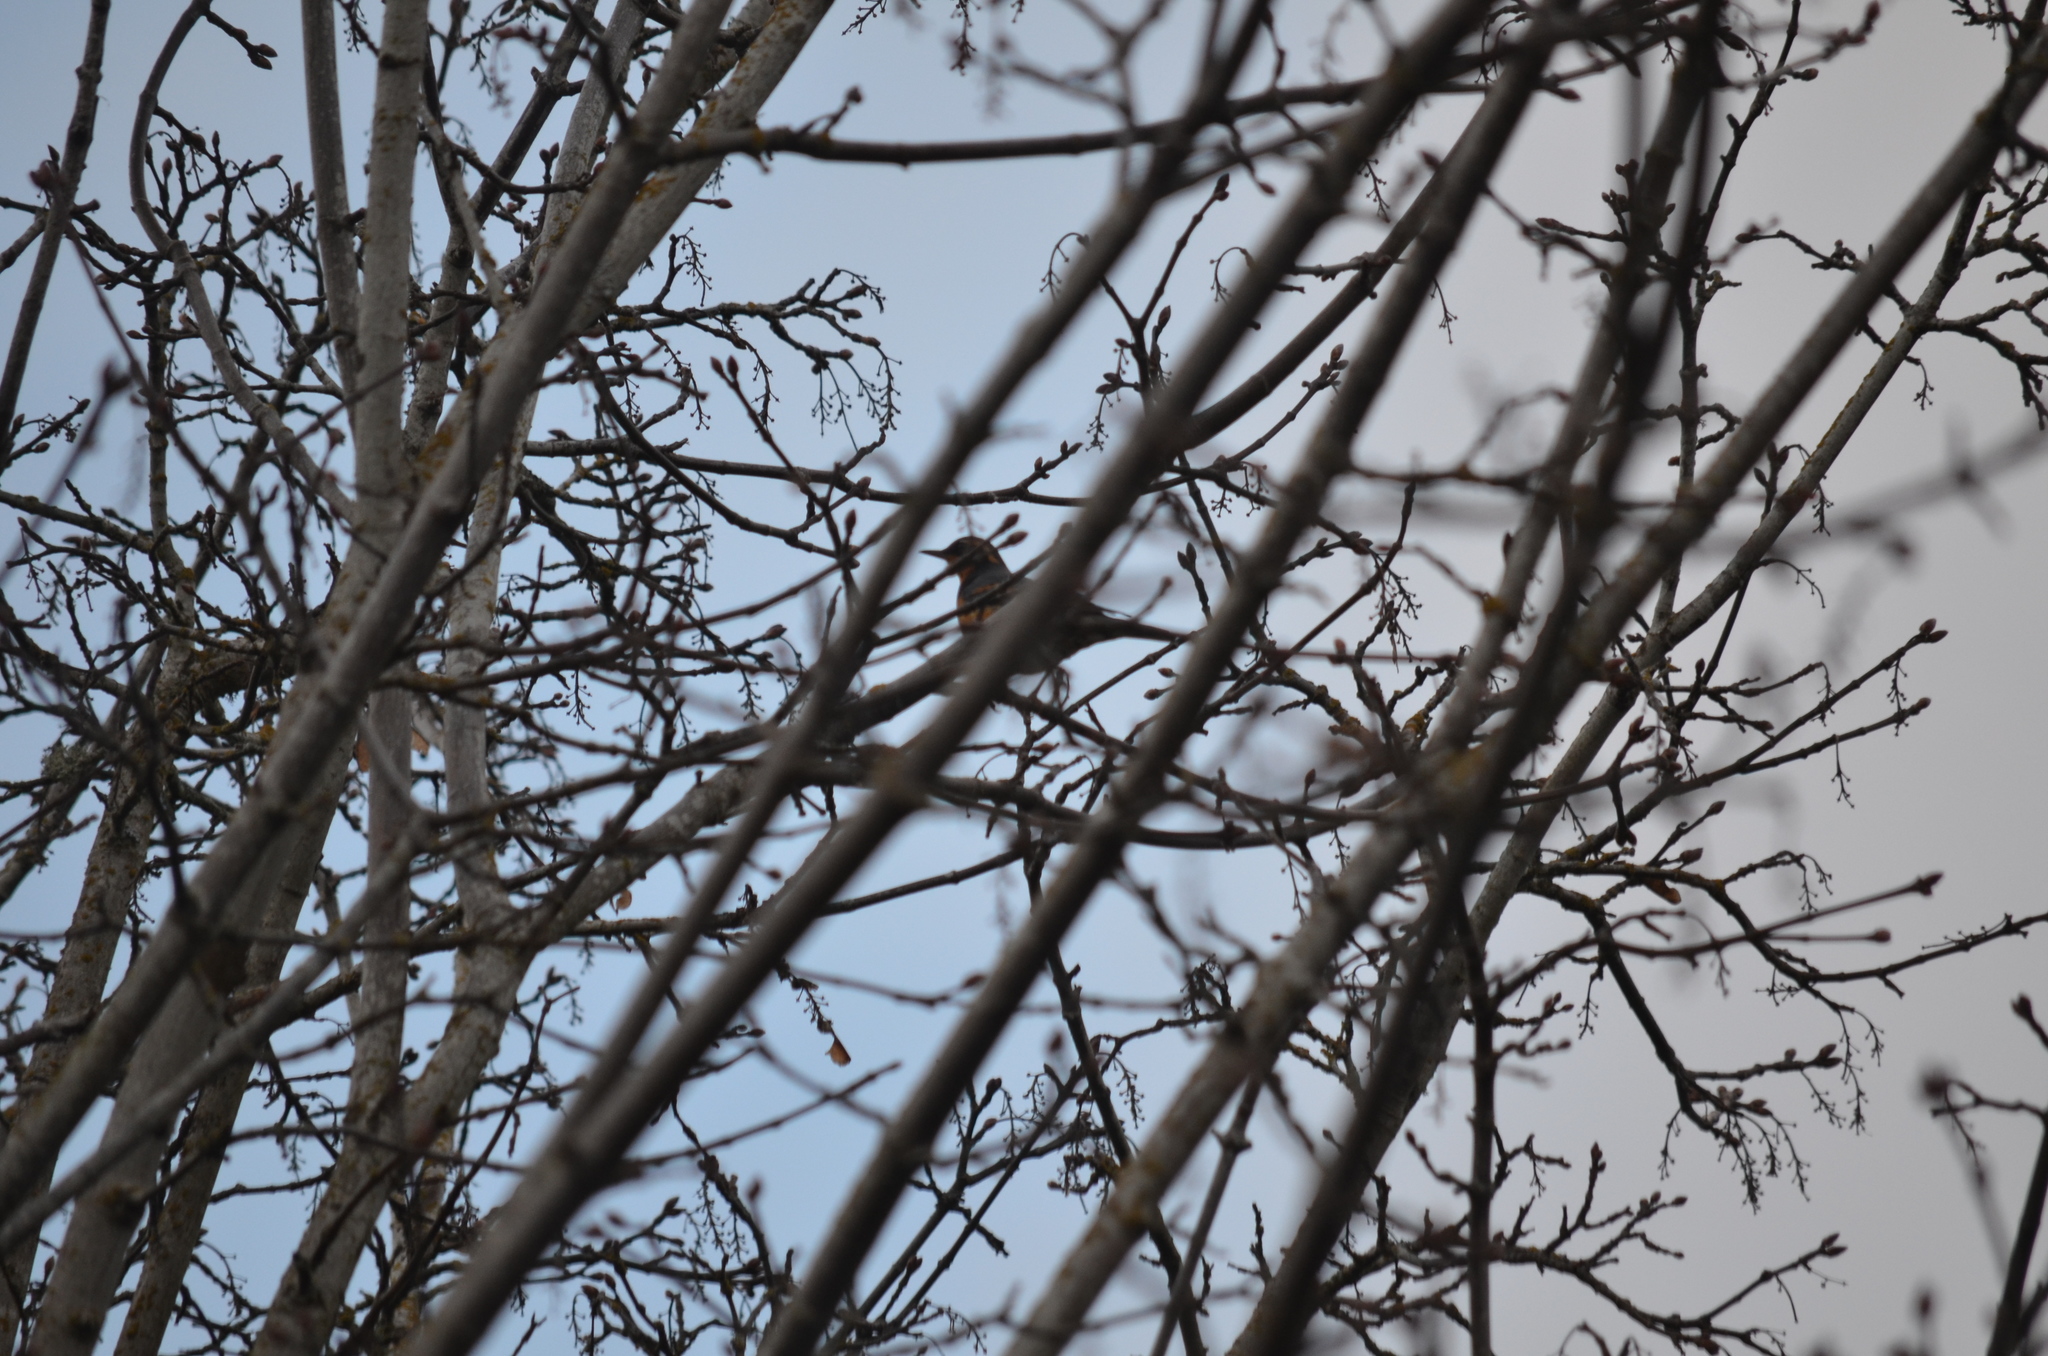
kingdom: Animalia
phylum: Chordata
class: Aves
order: Passeriformes
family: Turdidae
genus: Ixoreus
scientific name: Ixoreus naevius
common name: Varied thrush
